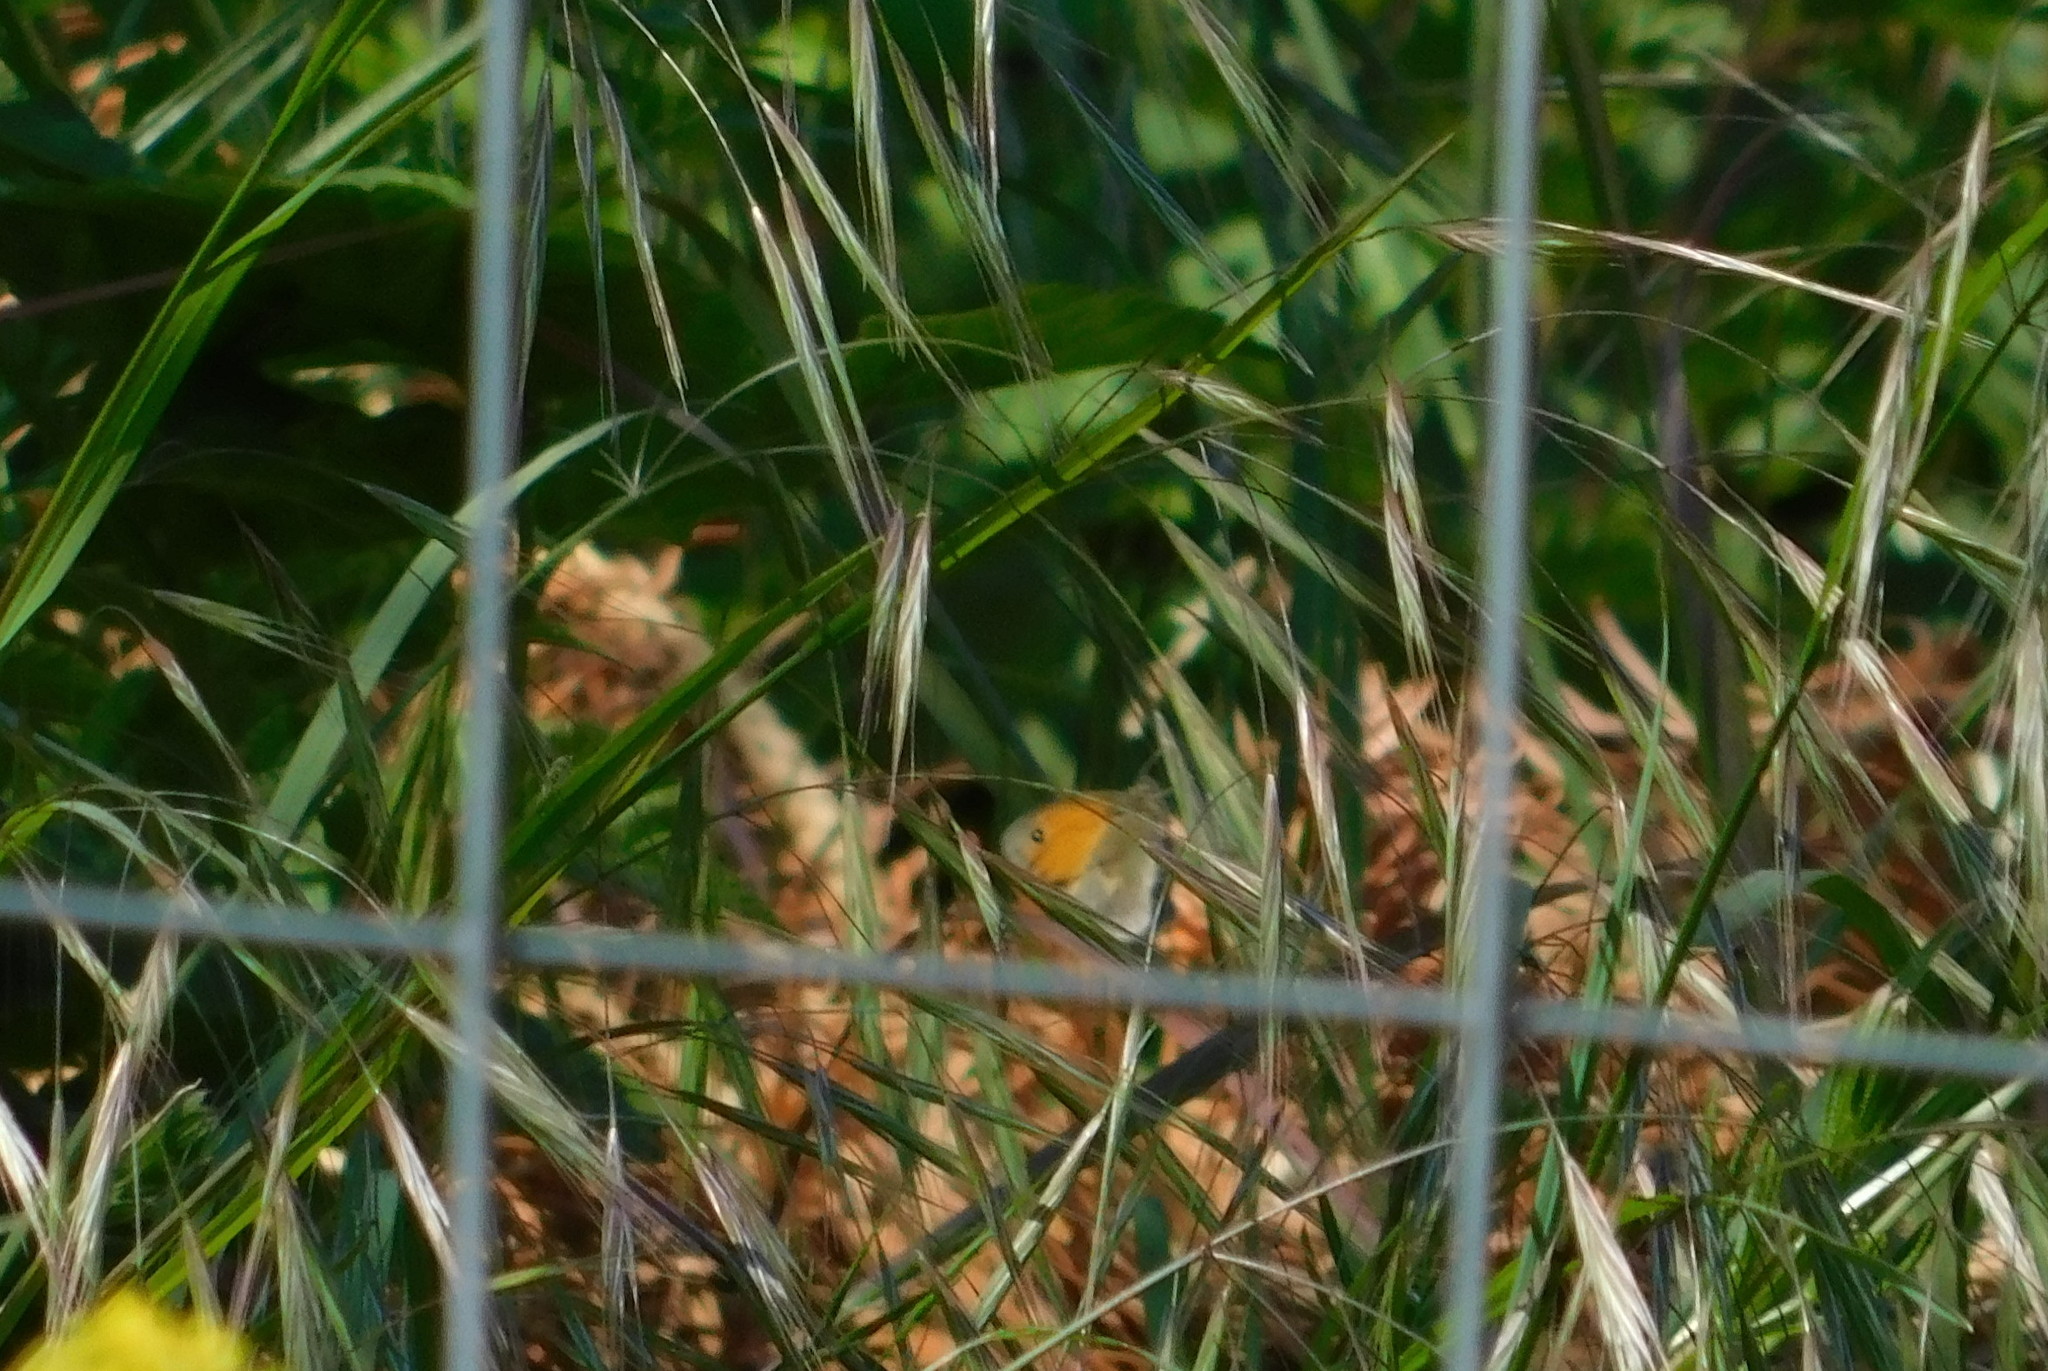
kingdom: Animalia
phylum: Arthropoda
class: Insecta
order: Lepidoptera
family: Nymphalidae
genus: Coenonympha
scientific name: Coenonympha pamphilus
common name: Small heath
